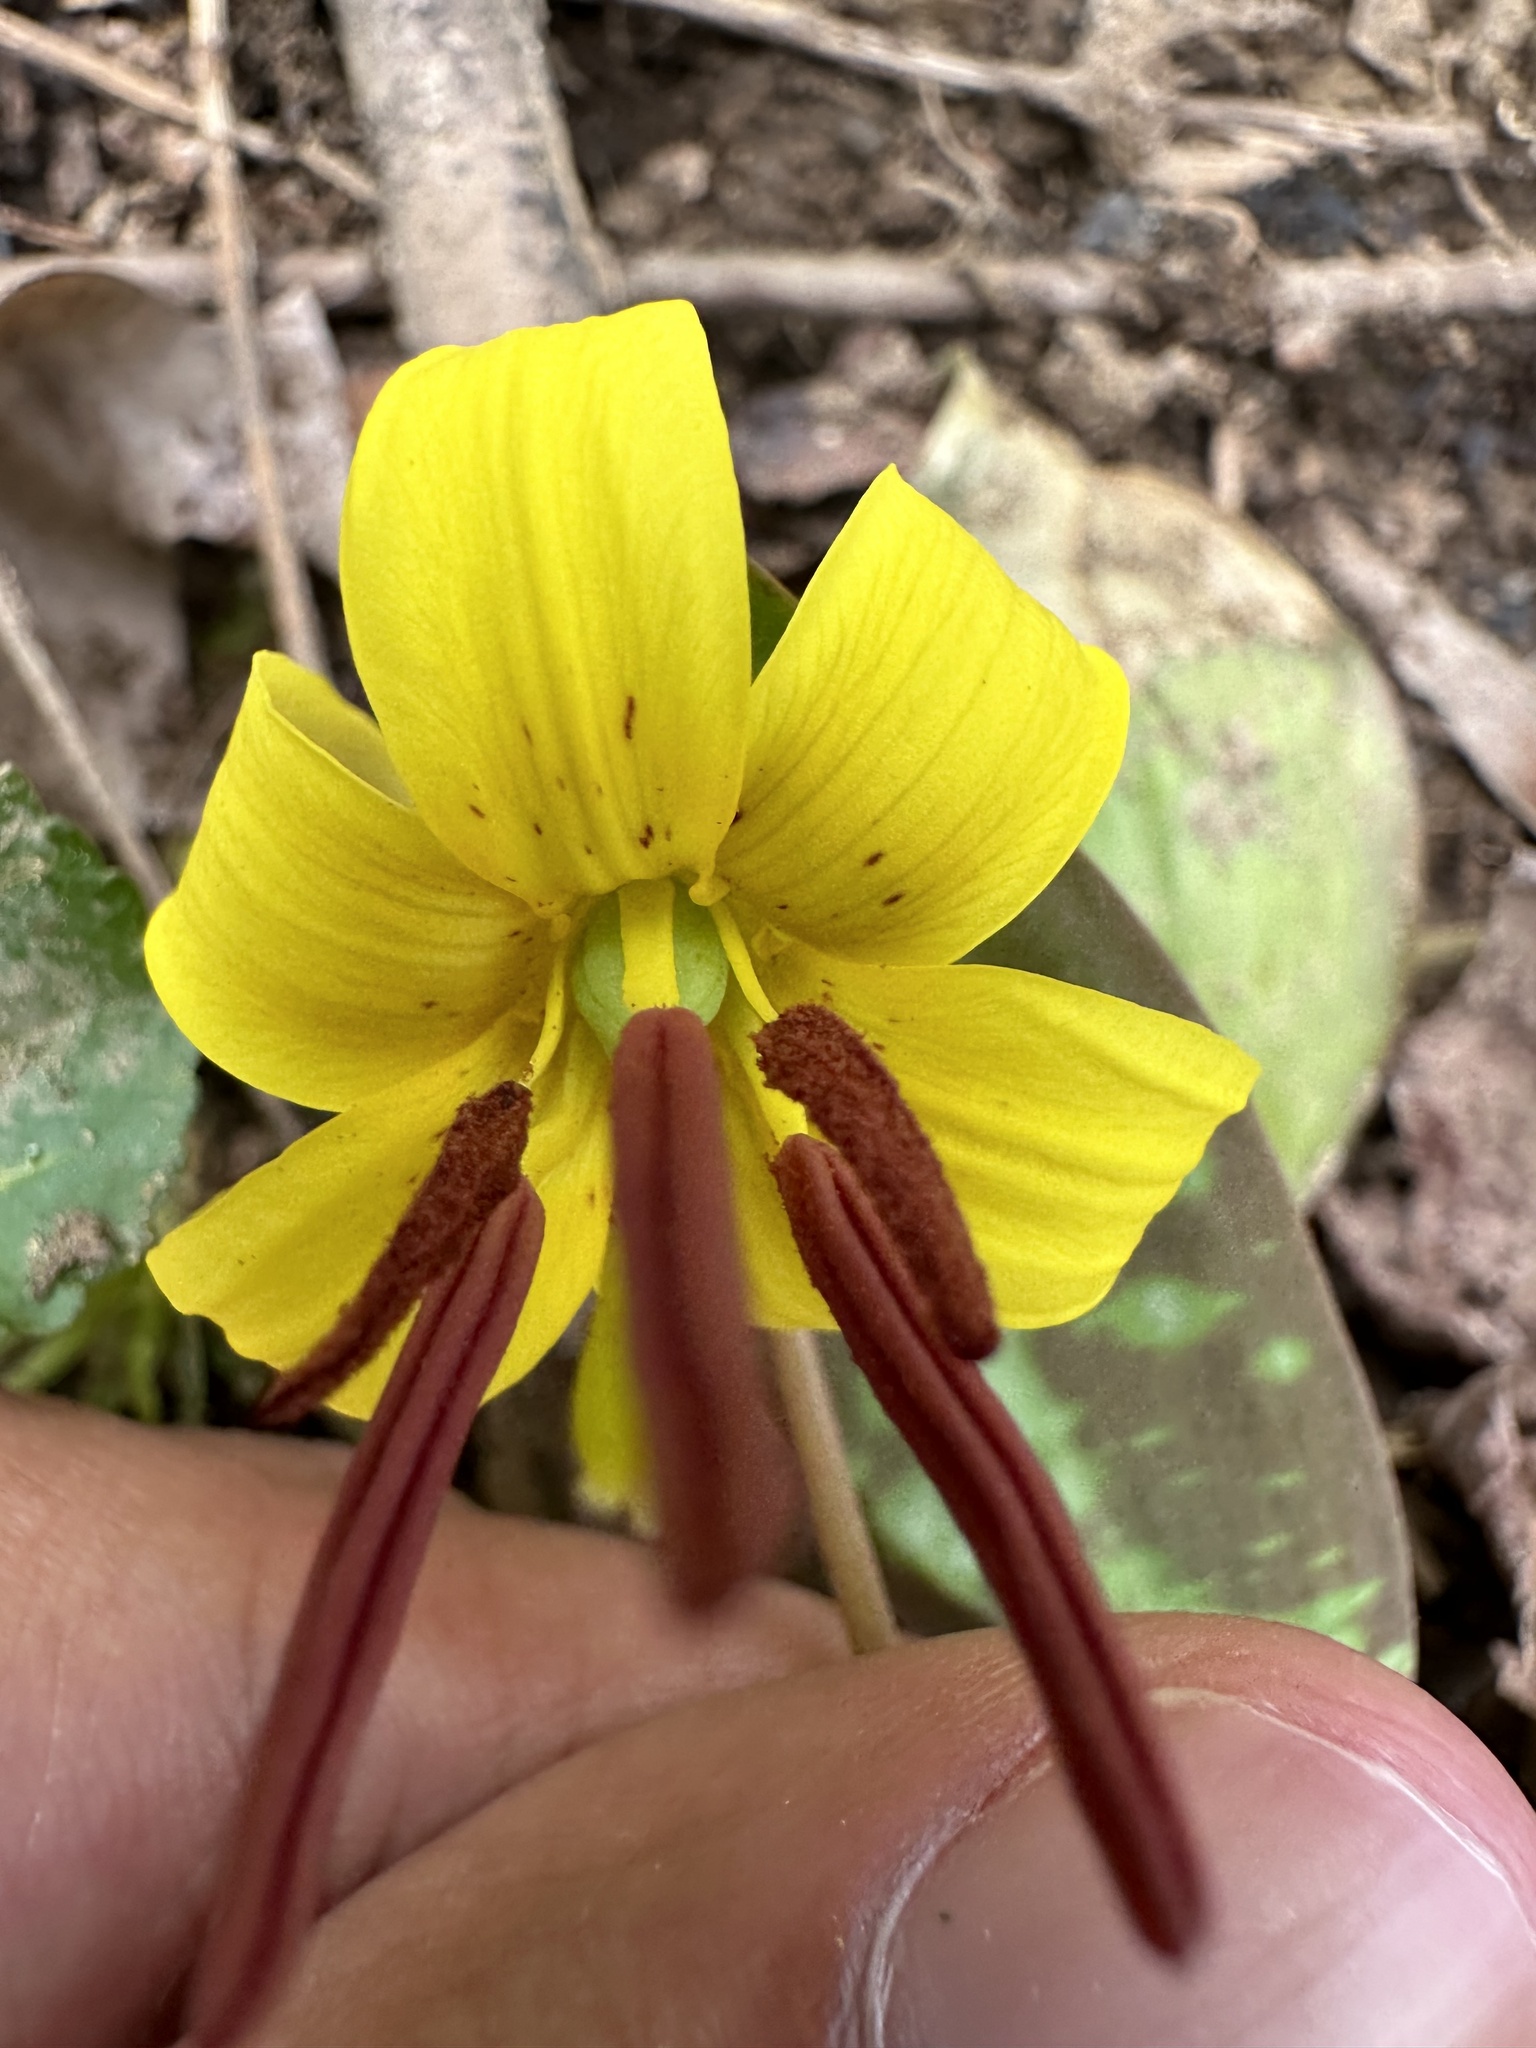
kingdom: Plantae
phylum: Tracheophyta
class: Liliopsida
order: Liliales
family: Liliaceae
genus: Erythronium
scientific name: Erythronium americanum
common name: Yellow adder's-tongue
